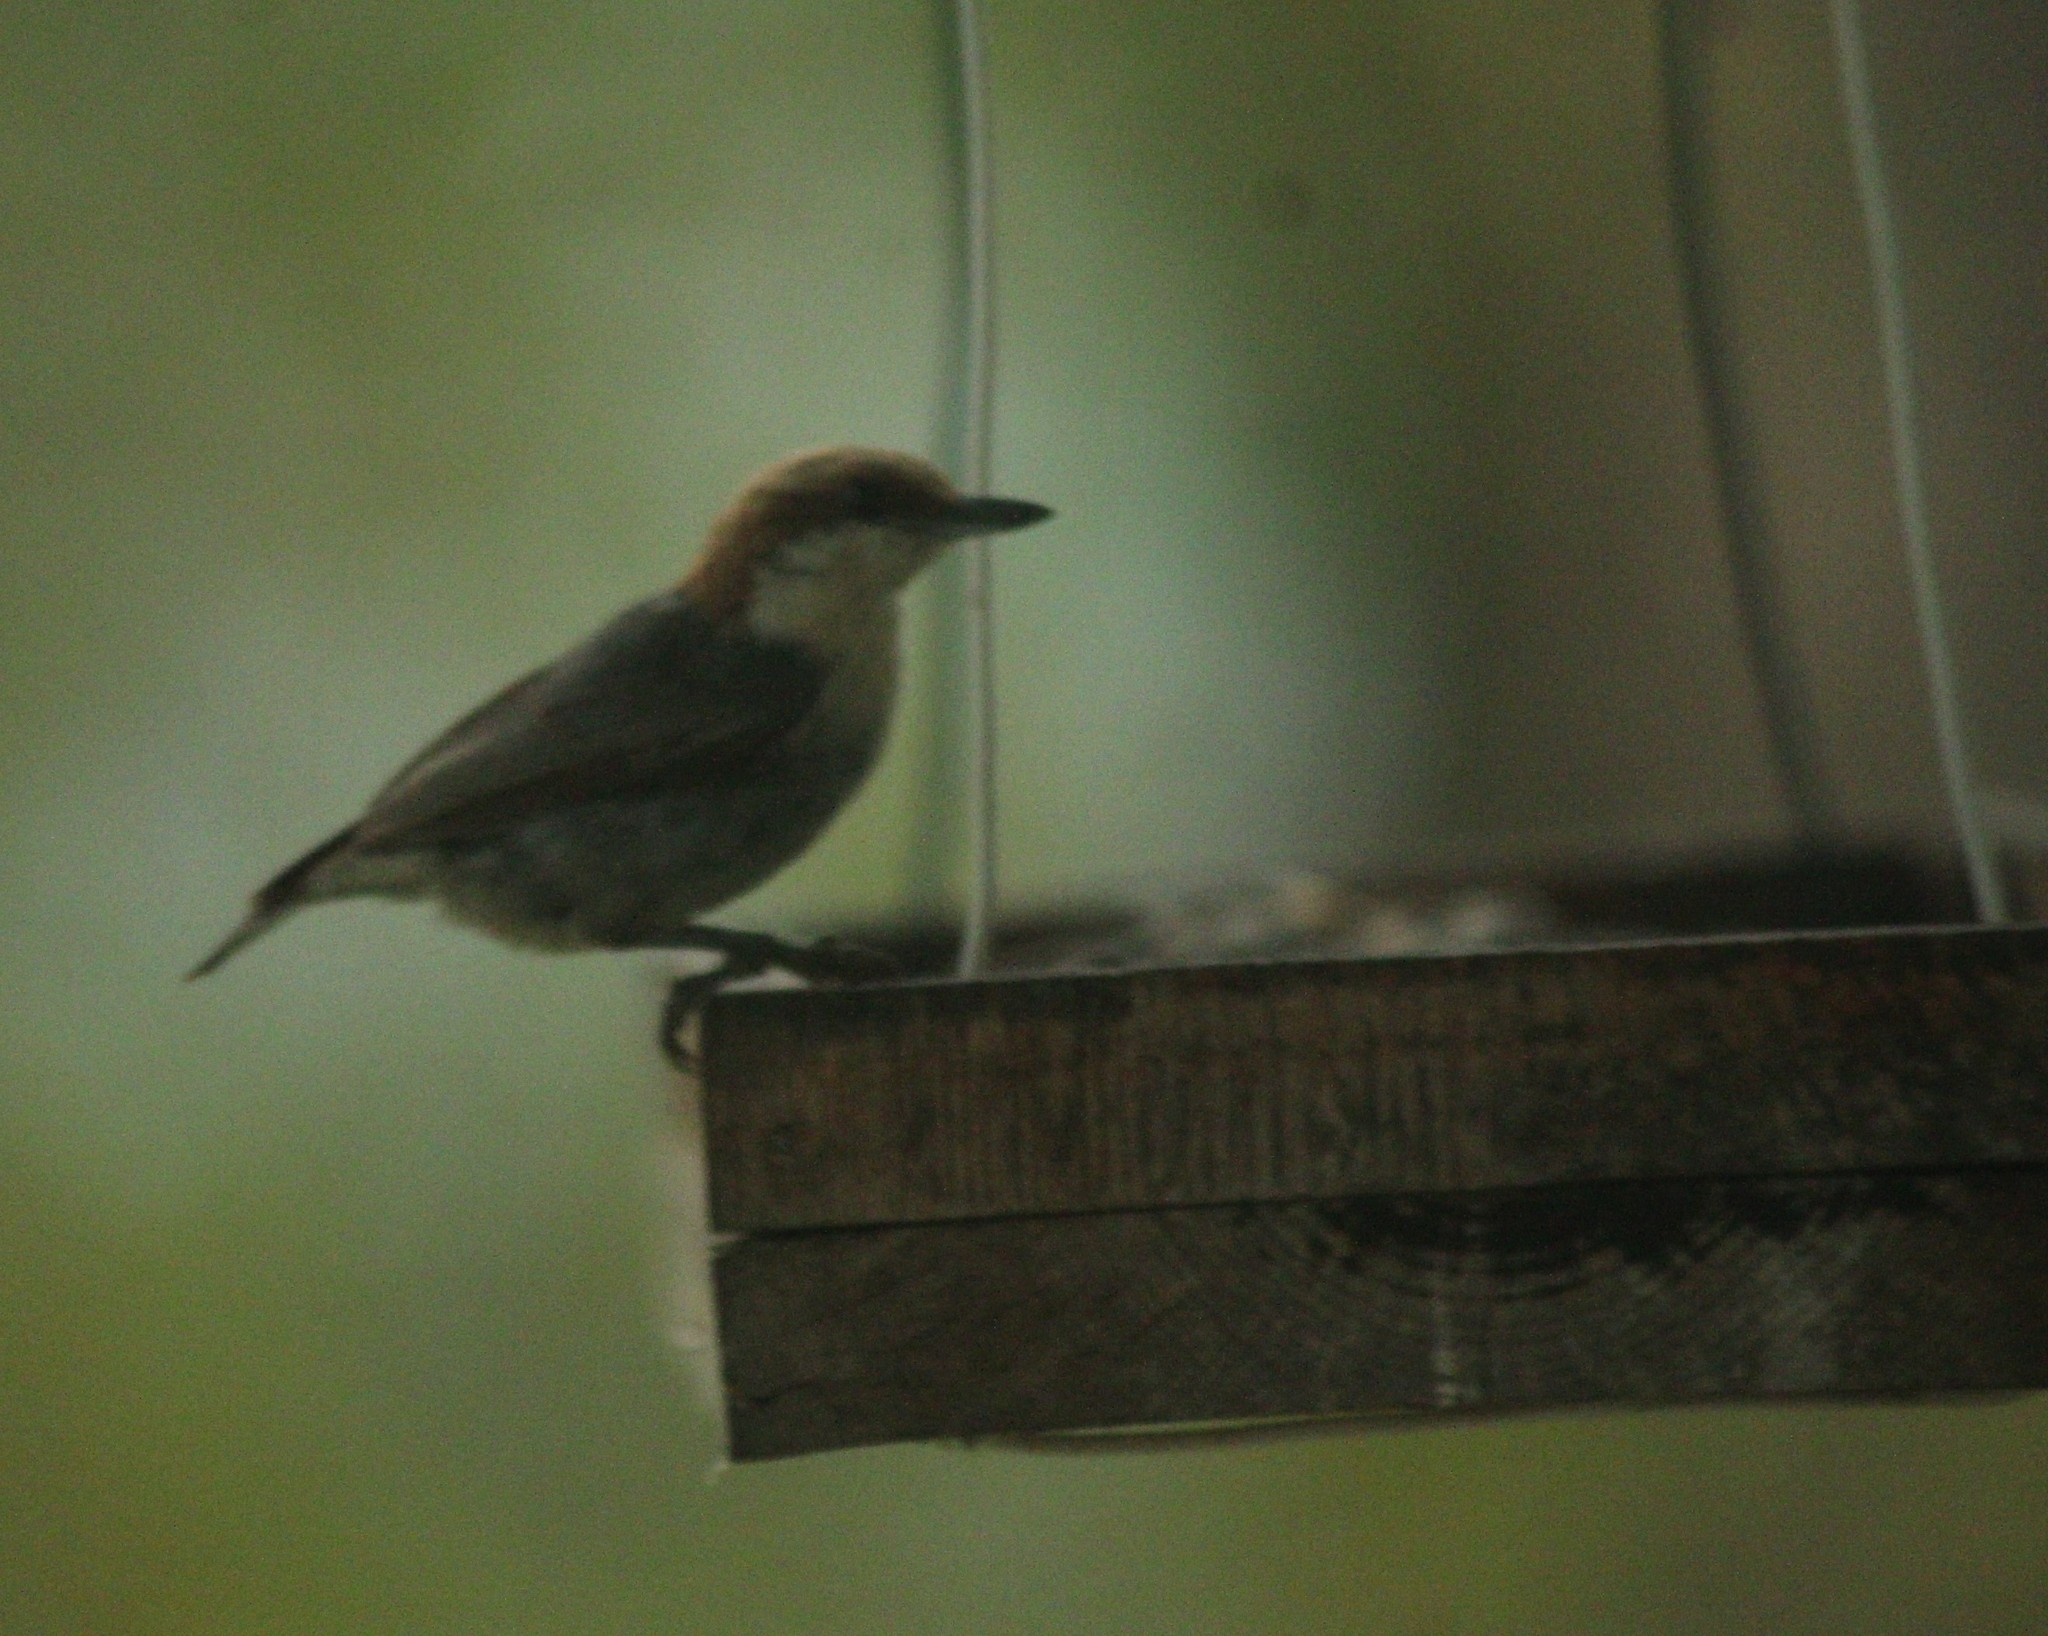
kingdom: Animalia
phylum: Chordata
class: Aves
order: Passeriformes
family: Sittidae
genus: Sitta
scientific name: Sitta pusilla
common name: Brown-headed nuthatch
